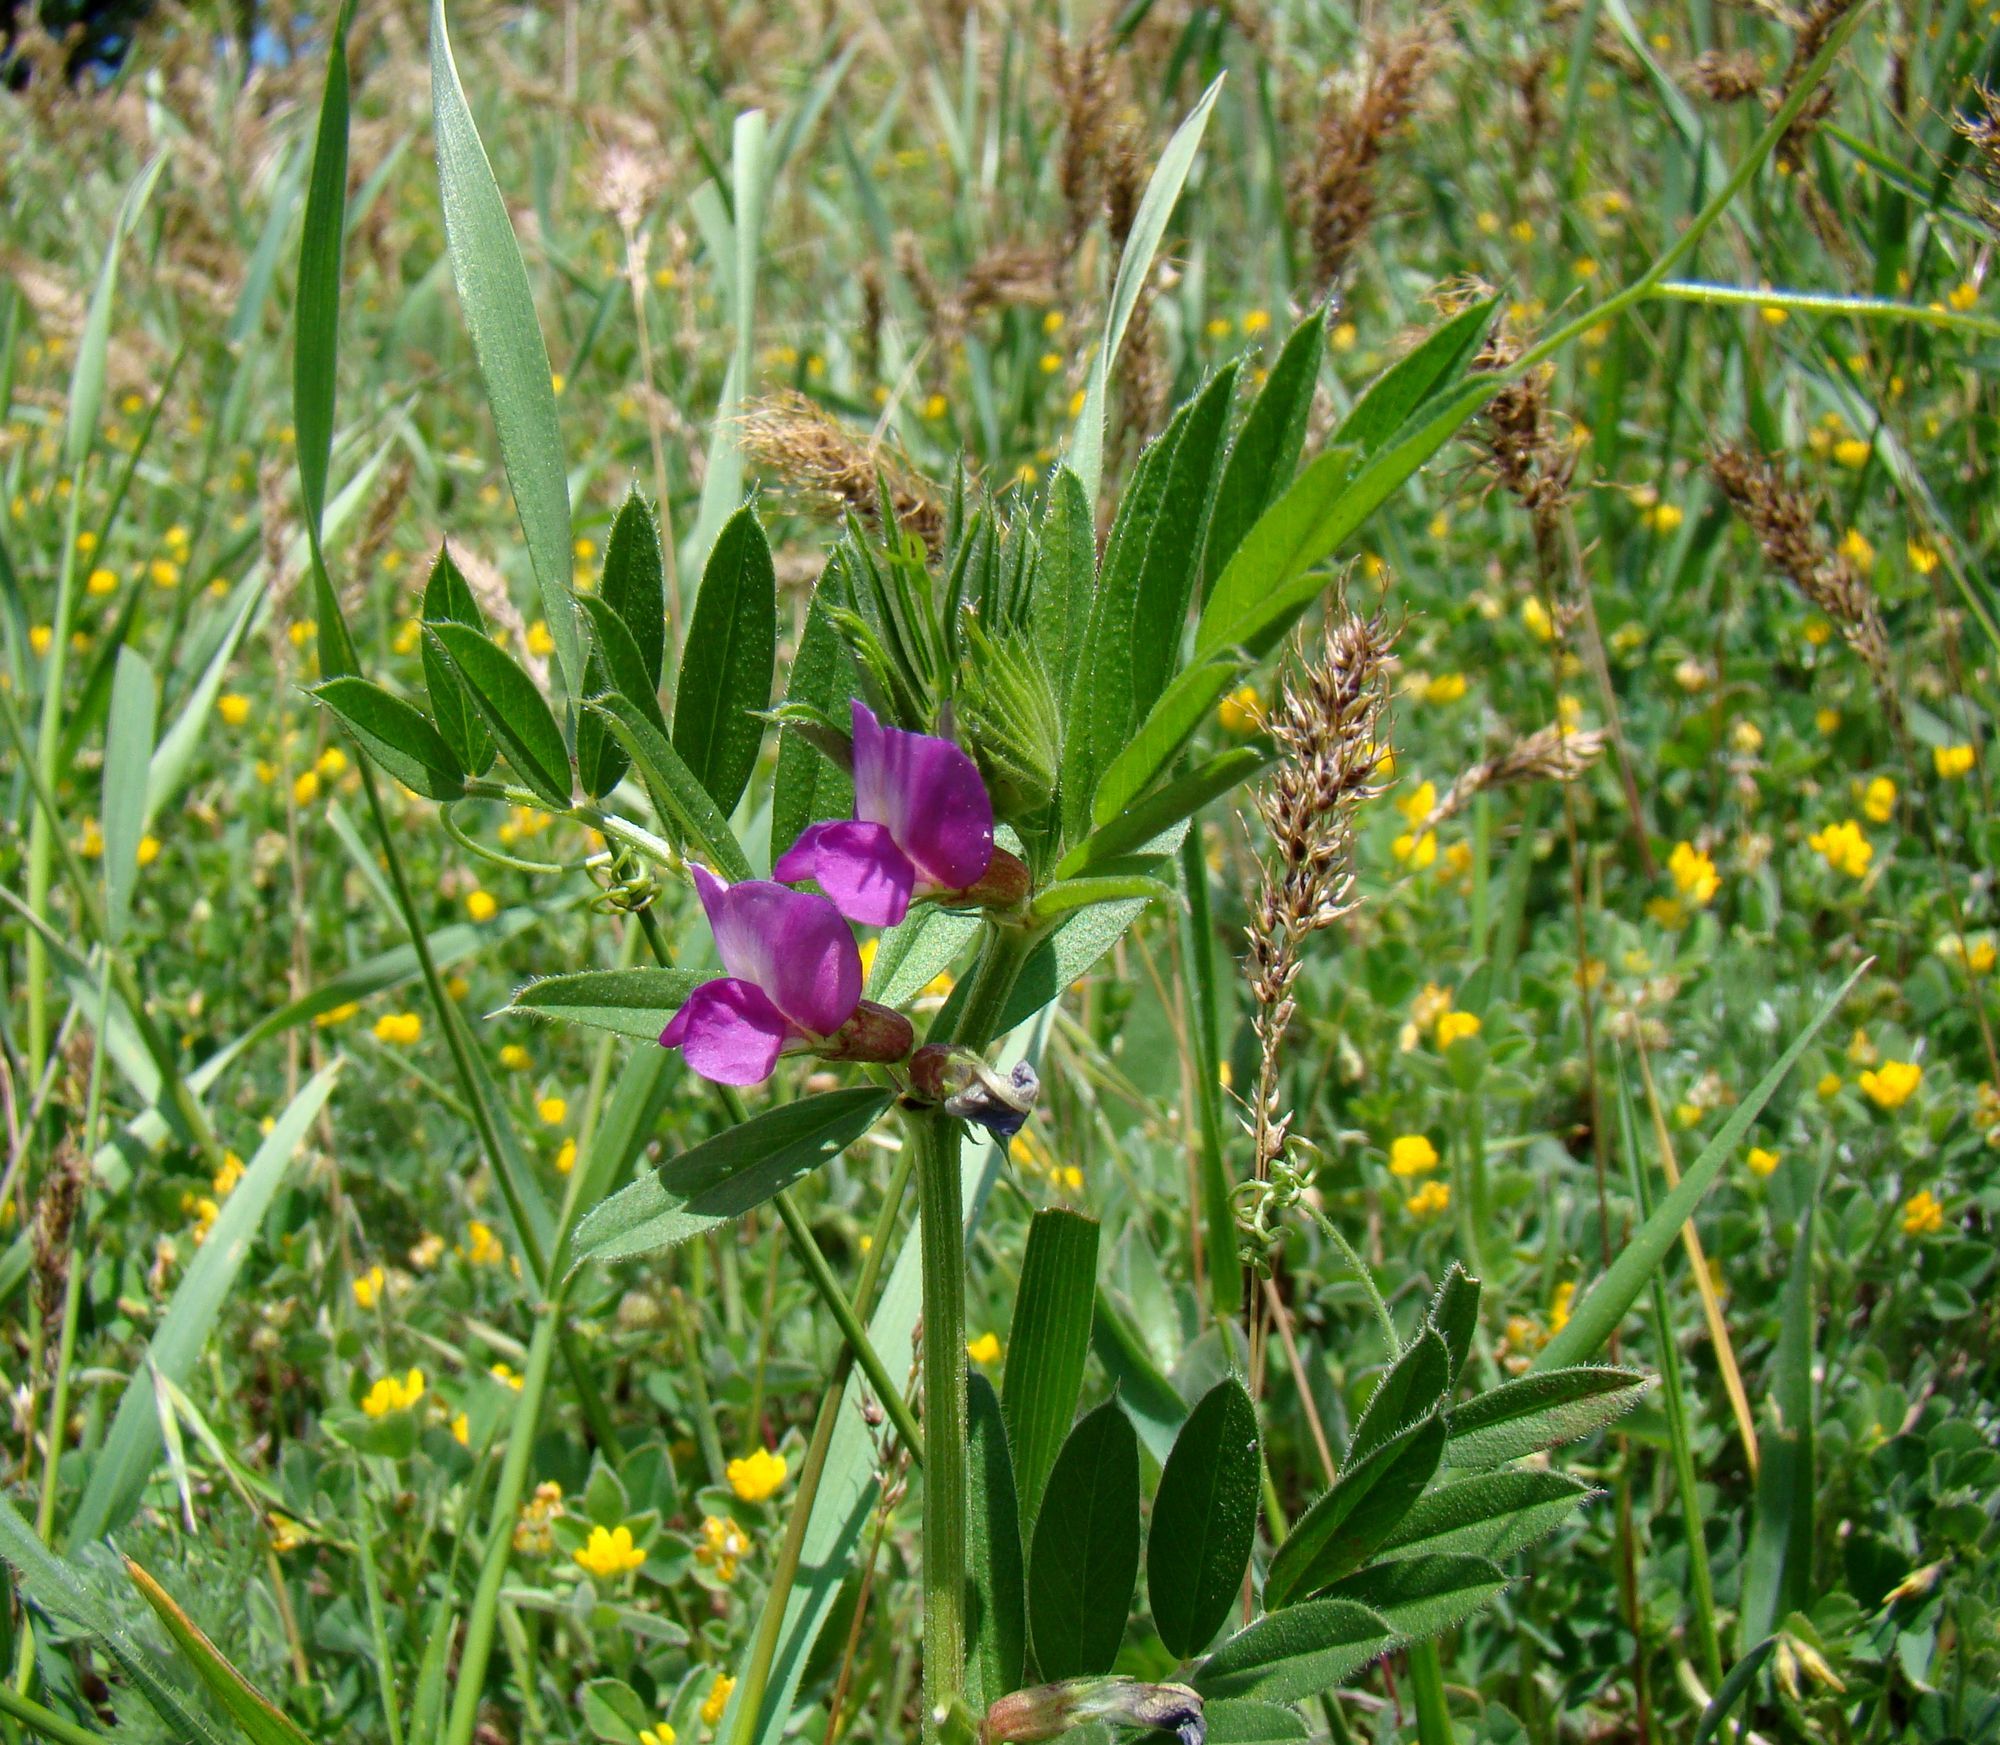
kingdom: Plantae
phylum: Tracheophyta
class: Magnoliopsida
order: Fabales
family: Fabaceae
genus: Vicia
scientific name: Vicia sativa
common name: Garden vetch
